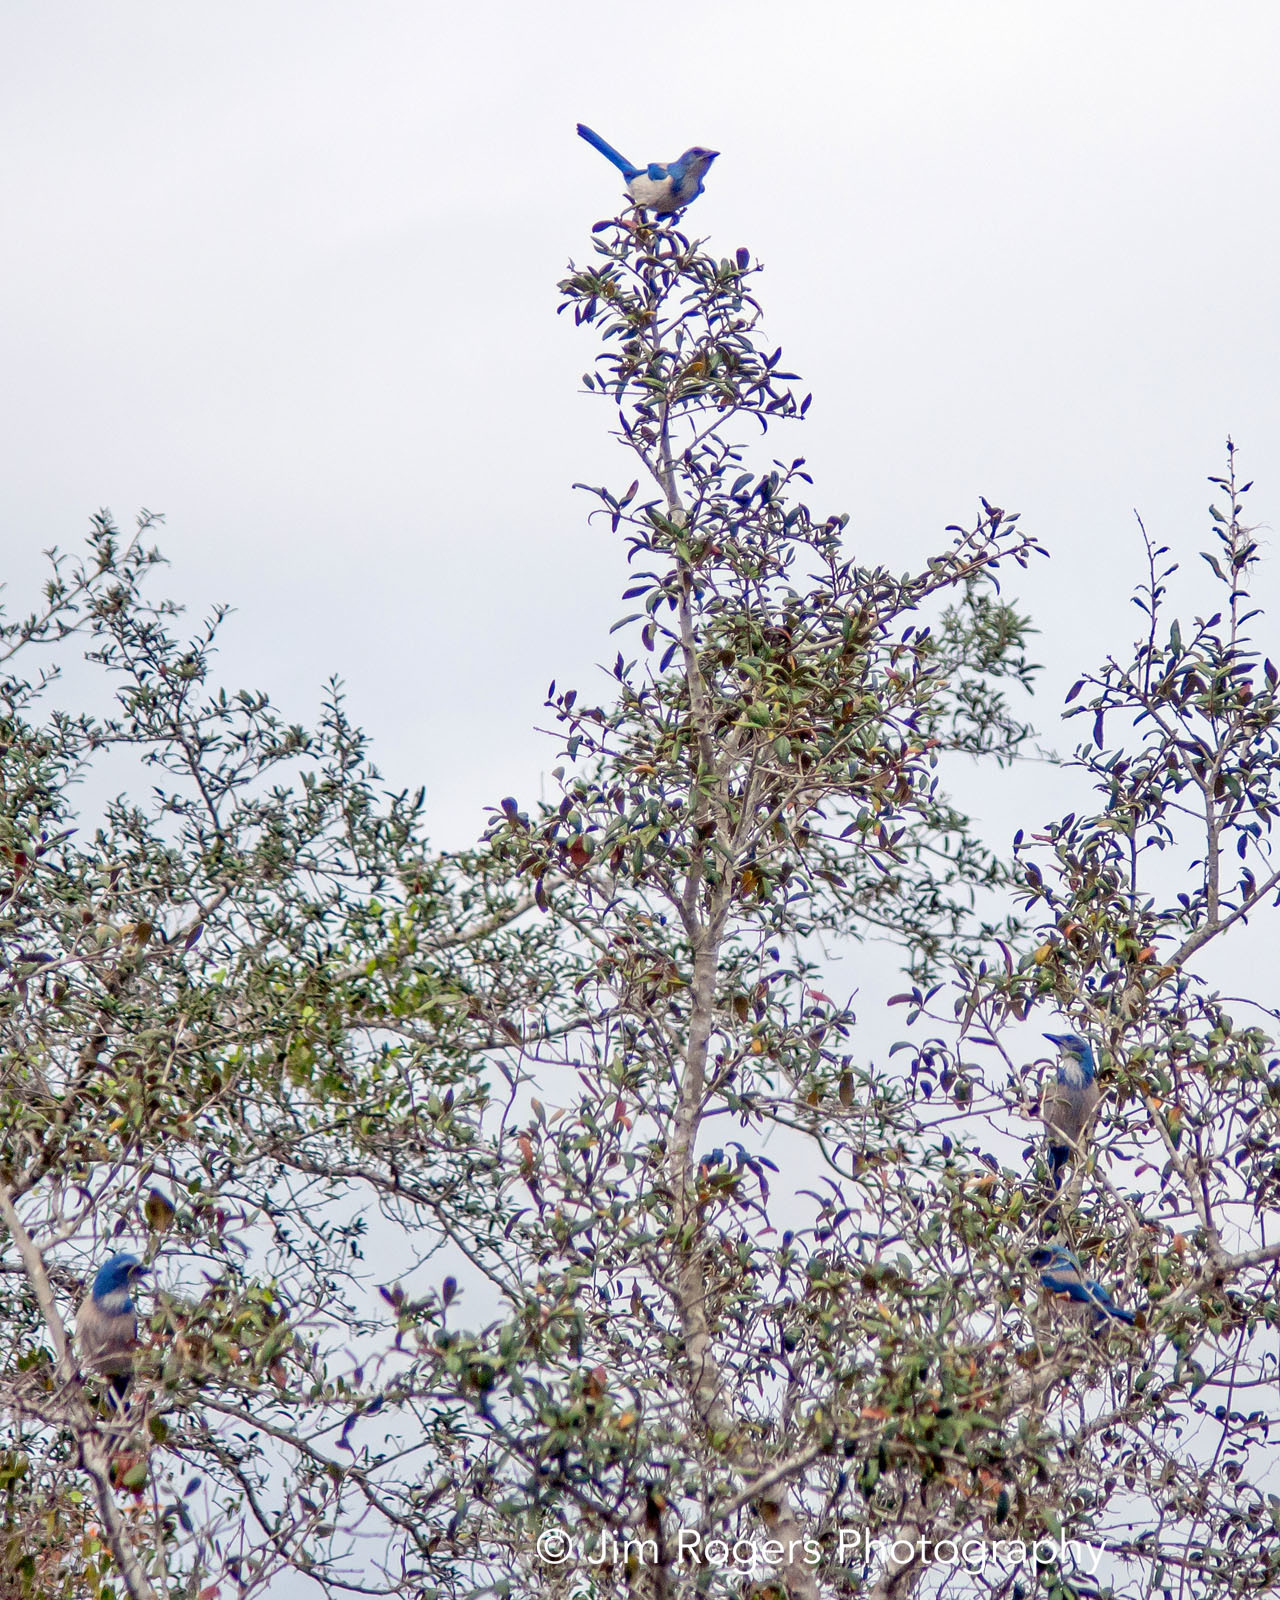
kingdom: Animalia
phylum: Chordata
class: Aves
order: Passeriformes
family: Corvidae
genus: Aphelocoma
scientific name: Aphelocoma coerulescens
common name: Florida scrub jay
